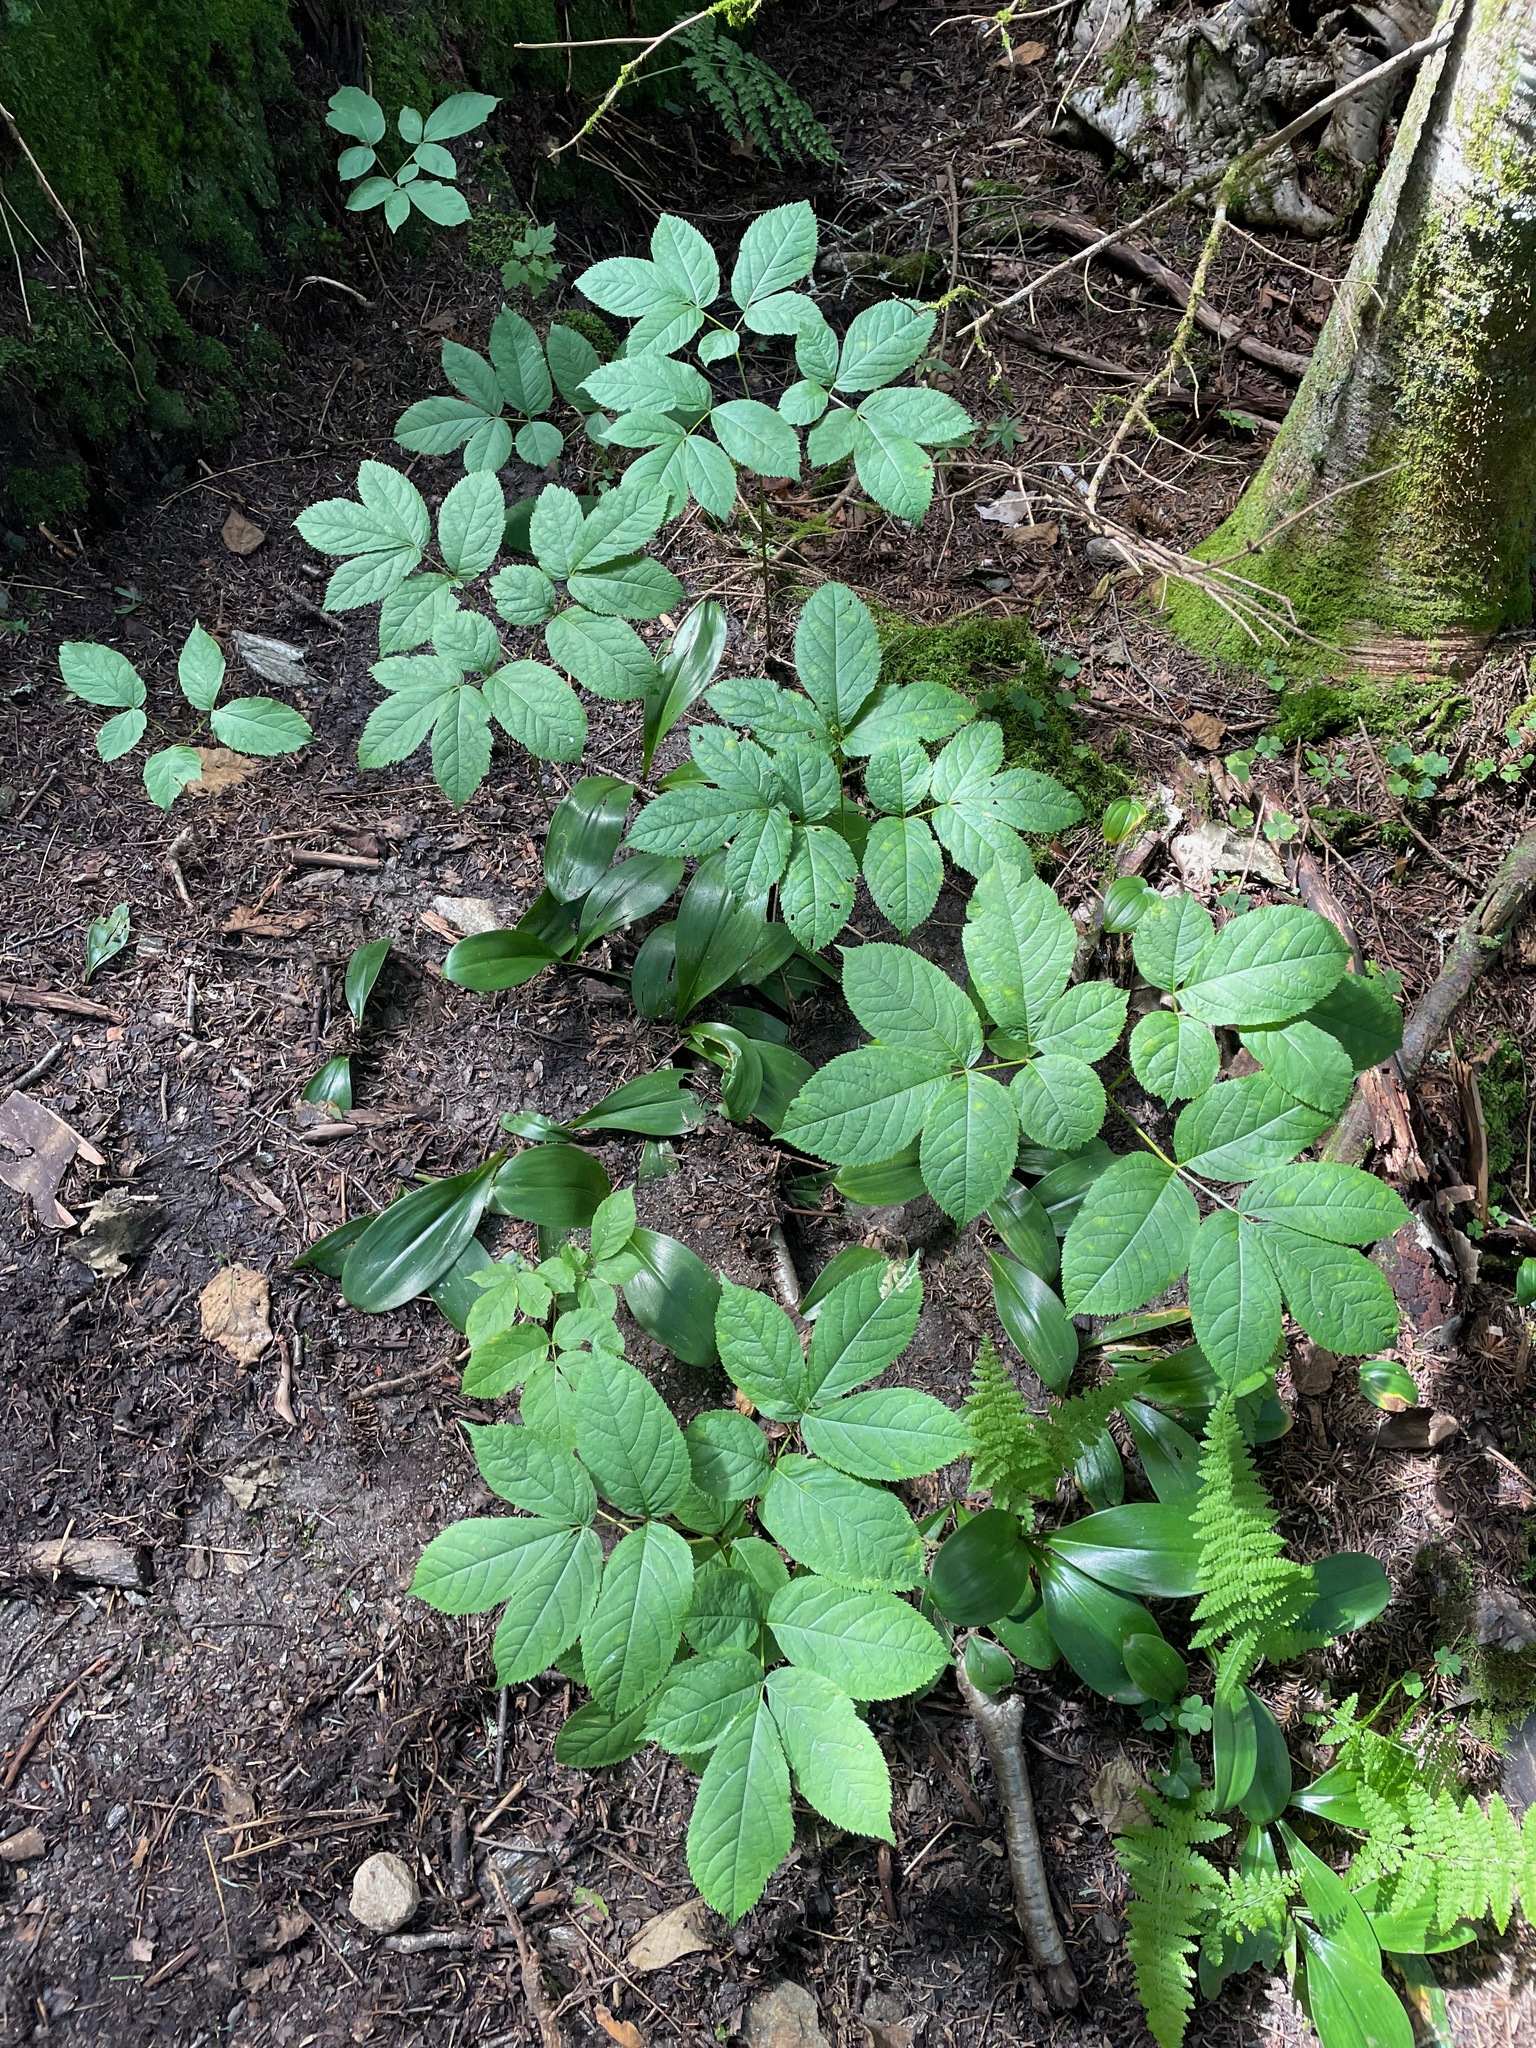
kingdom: Plantae
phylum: Tracheophyta
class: Magnoliopsida
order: Apiales
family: Araliaceae
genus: Aralia
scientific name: Aralia nudicaulis
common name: Wild sarsaparilla
